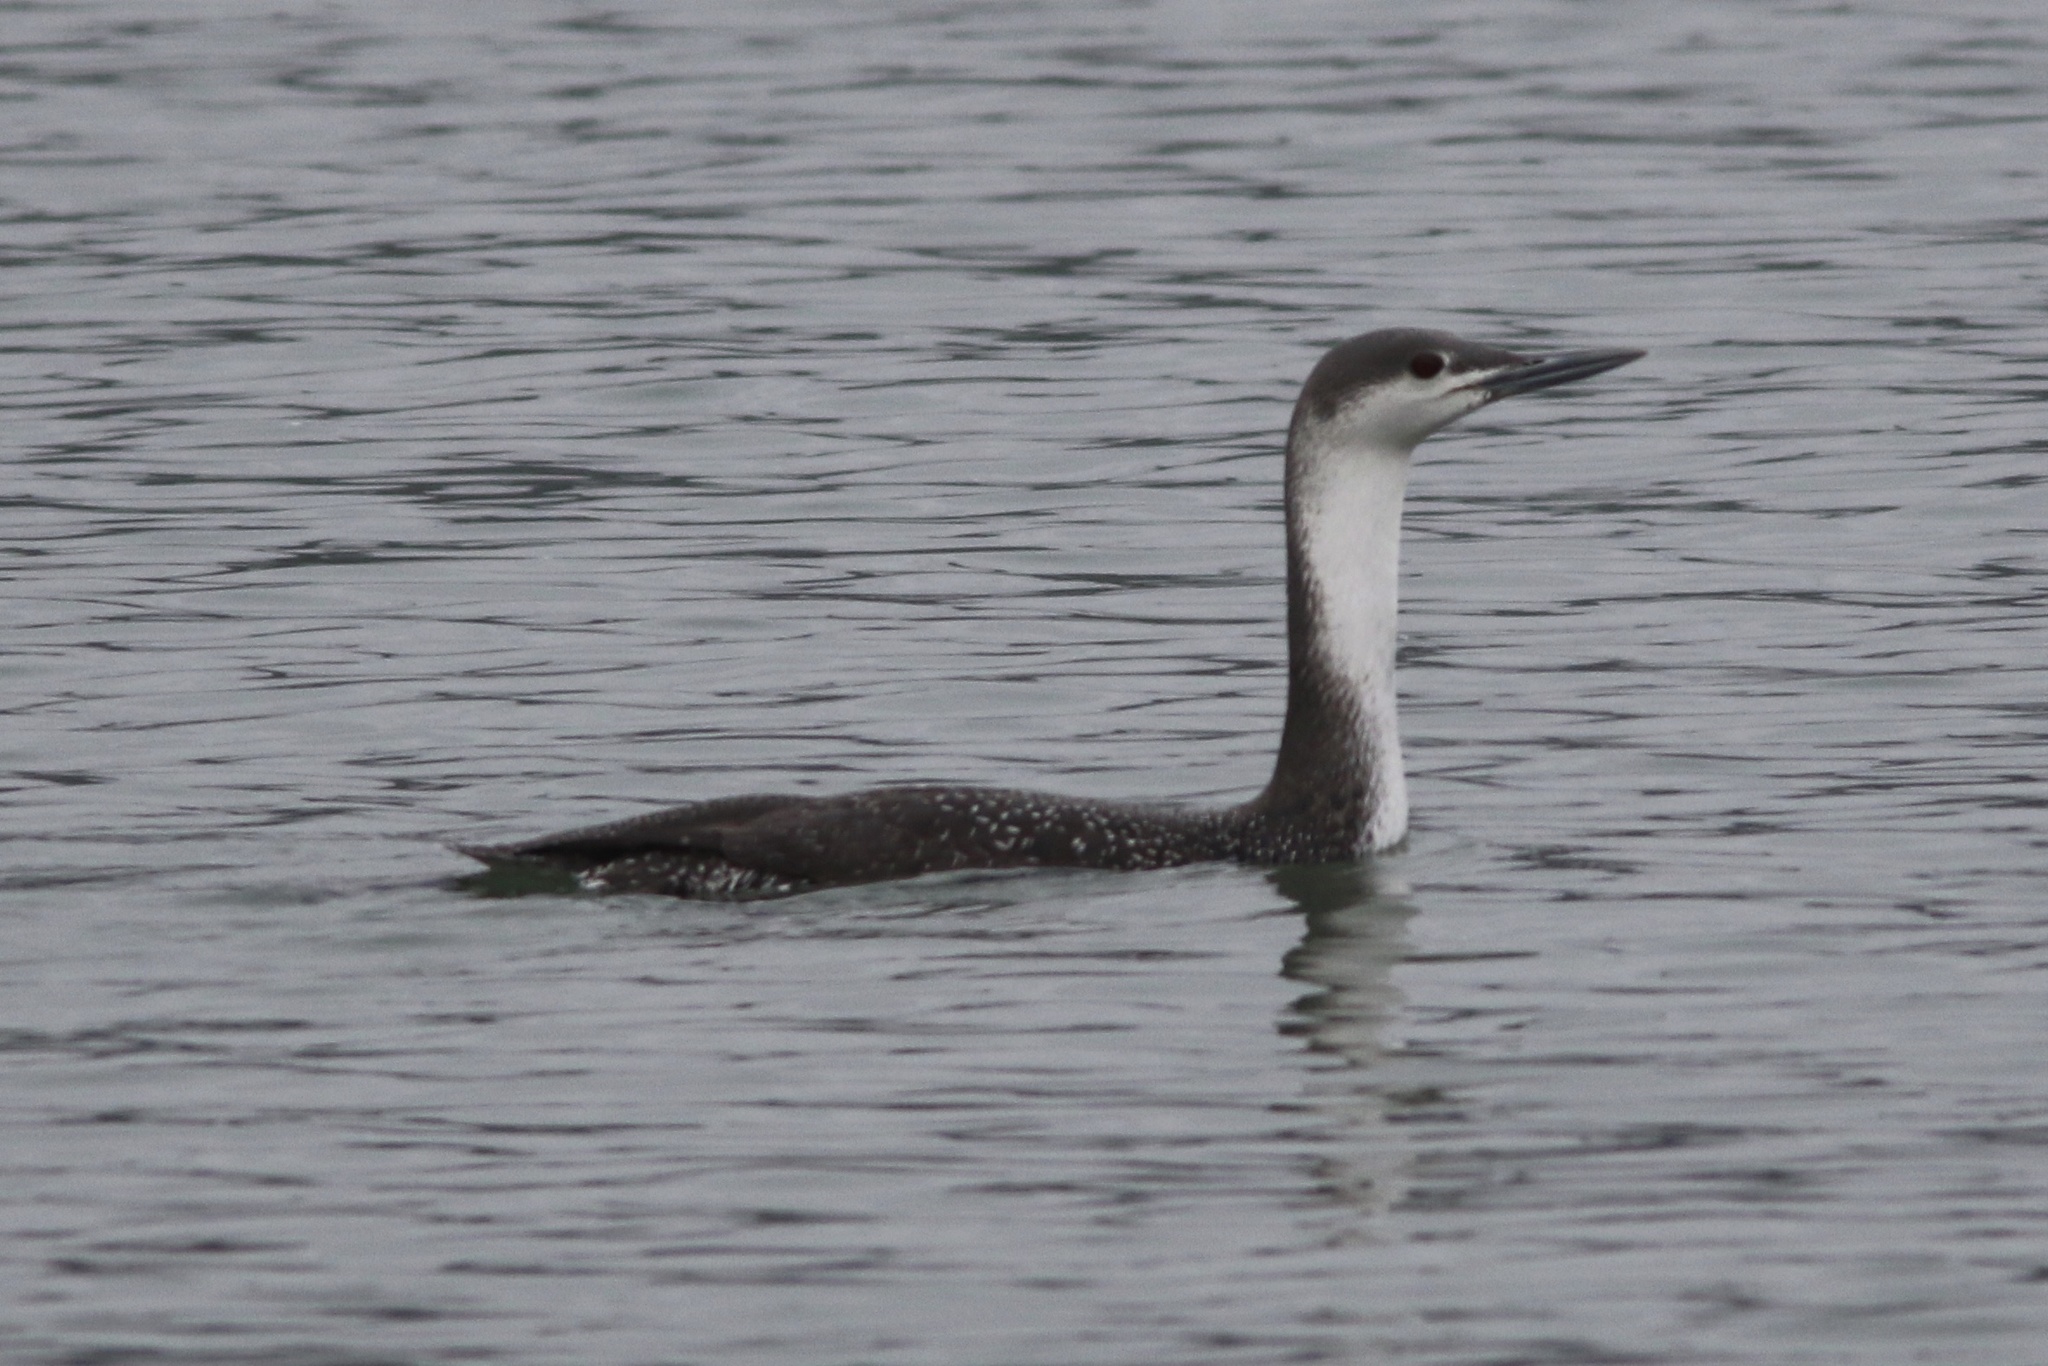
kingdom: Animalia
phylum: Chordata
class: Aves
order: Gaviiformes
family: Gaviidae
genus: Gavia
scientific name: Gavia stellata
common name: Red-throated loon
